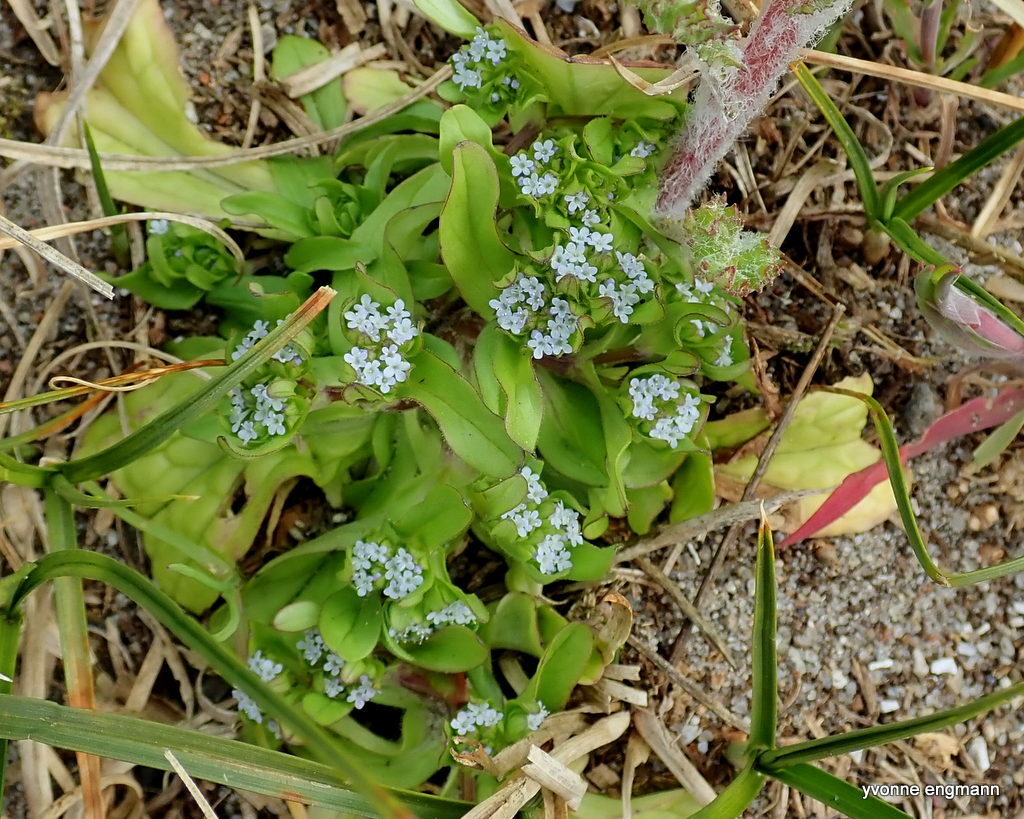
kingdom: Plantae
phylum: Tracheophyta
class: Magnoliopsida
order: Dipsacales
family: Caprifoliaceae
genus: Valerianella
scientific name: Valerianella locusta
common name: Common cornsalad
